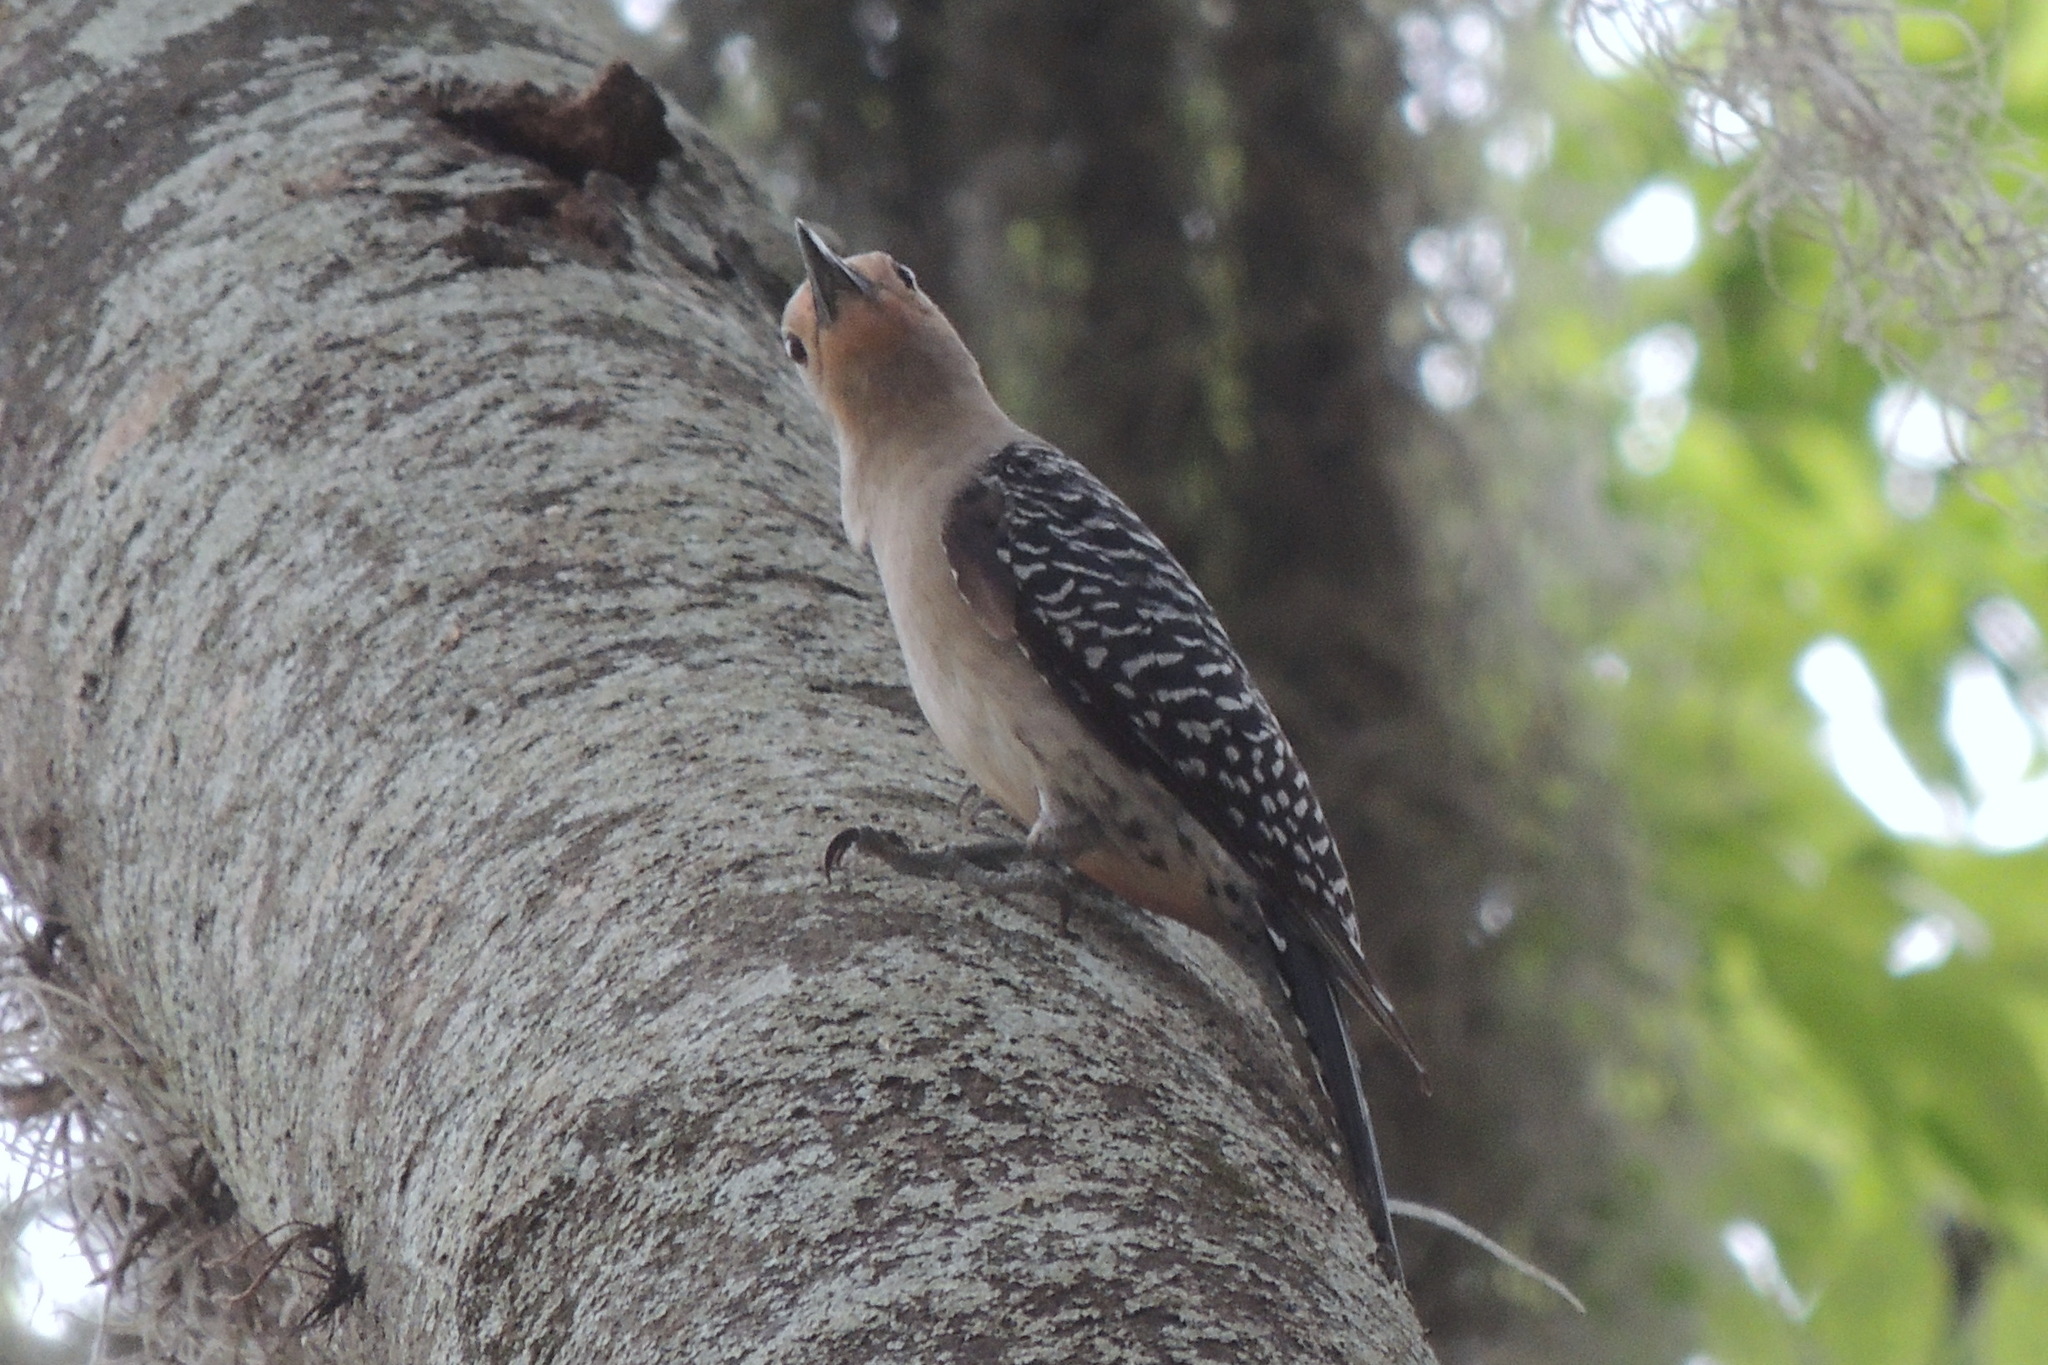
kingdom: Animalia
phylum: Chordata
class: Aves
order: Piciformes
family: Picidae
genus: Melanerpes
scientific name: Melanerpes carolinus
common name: Red-bellied woodpecker
